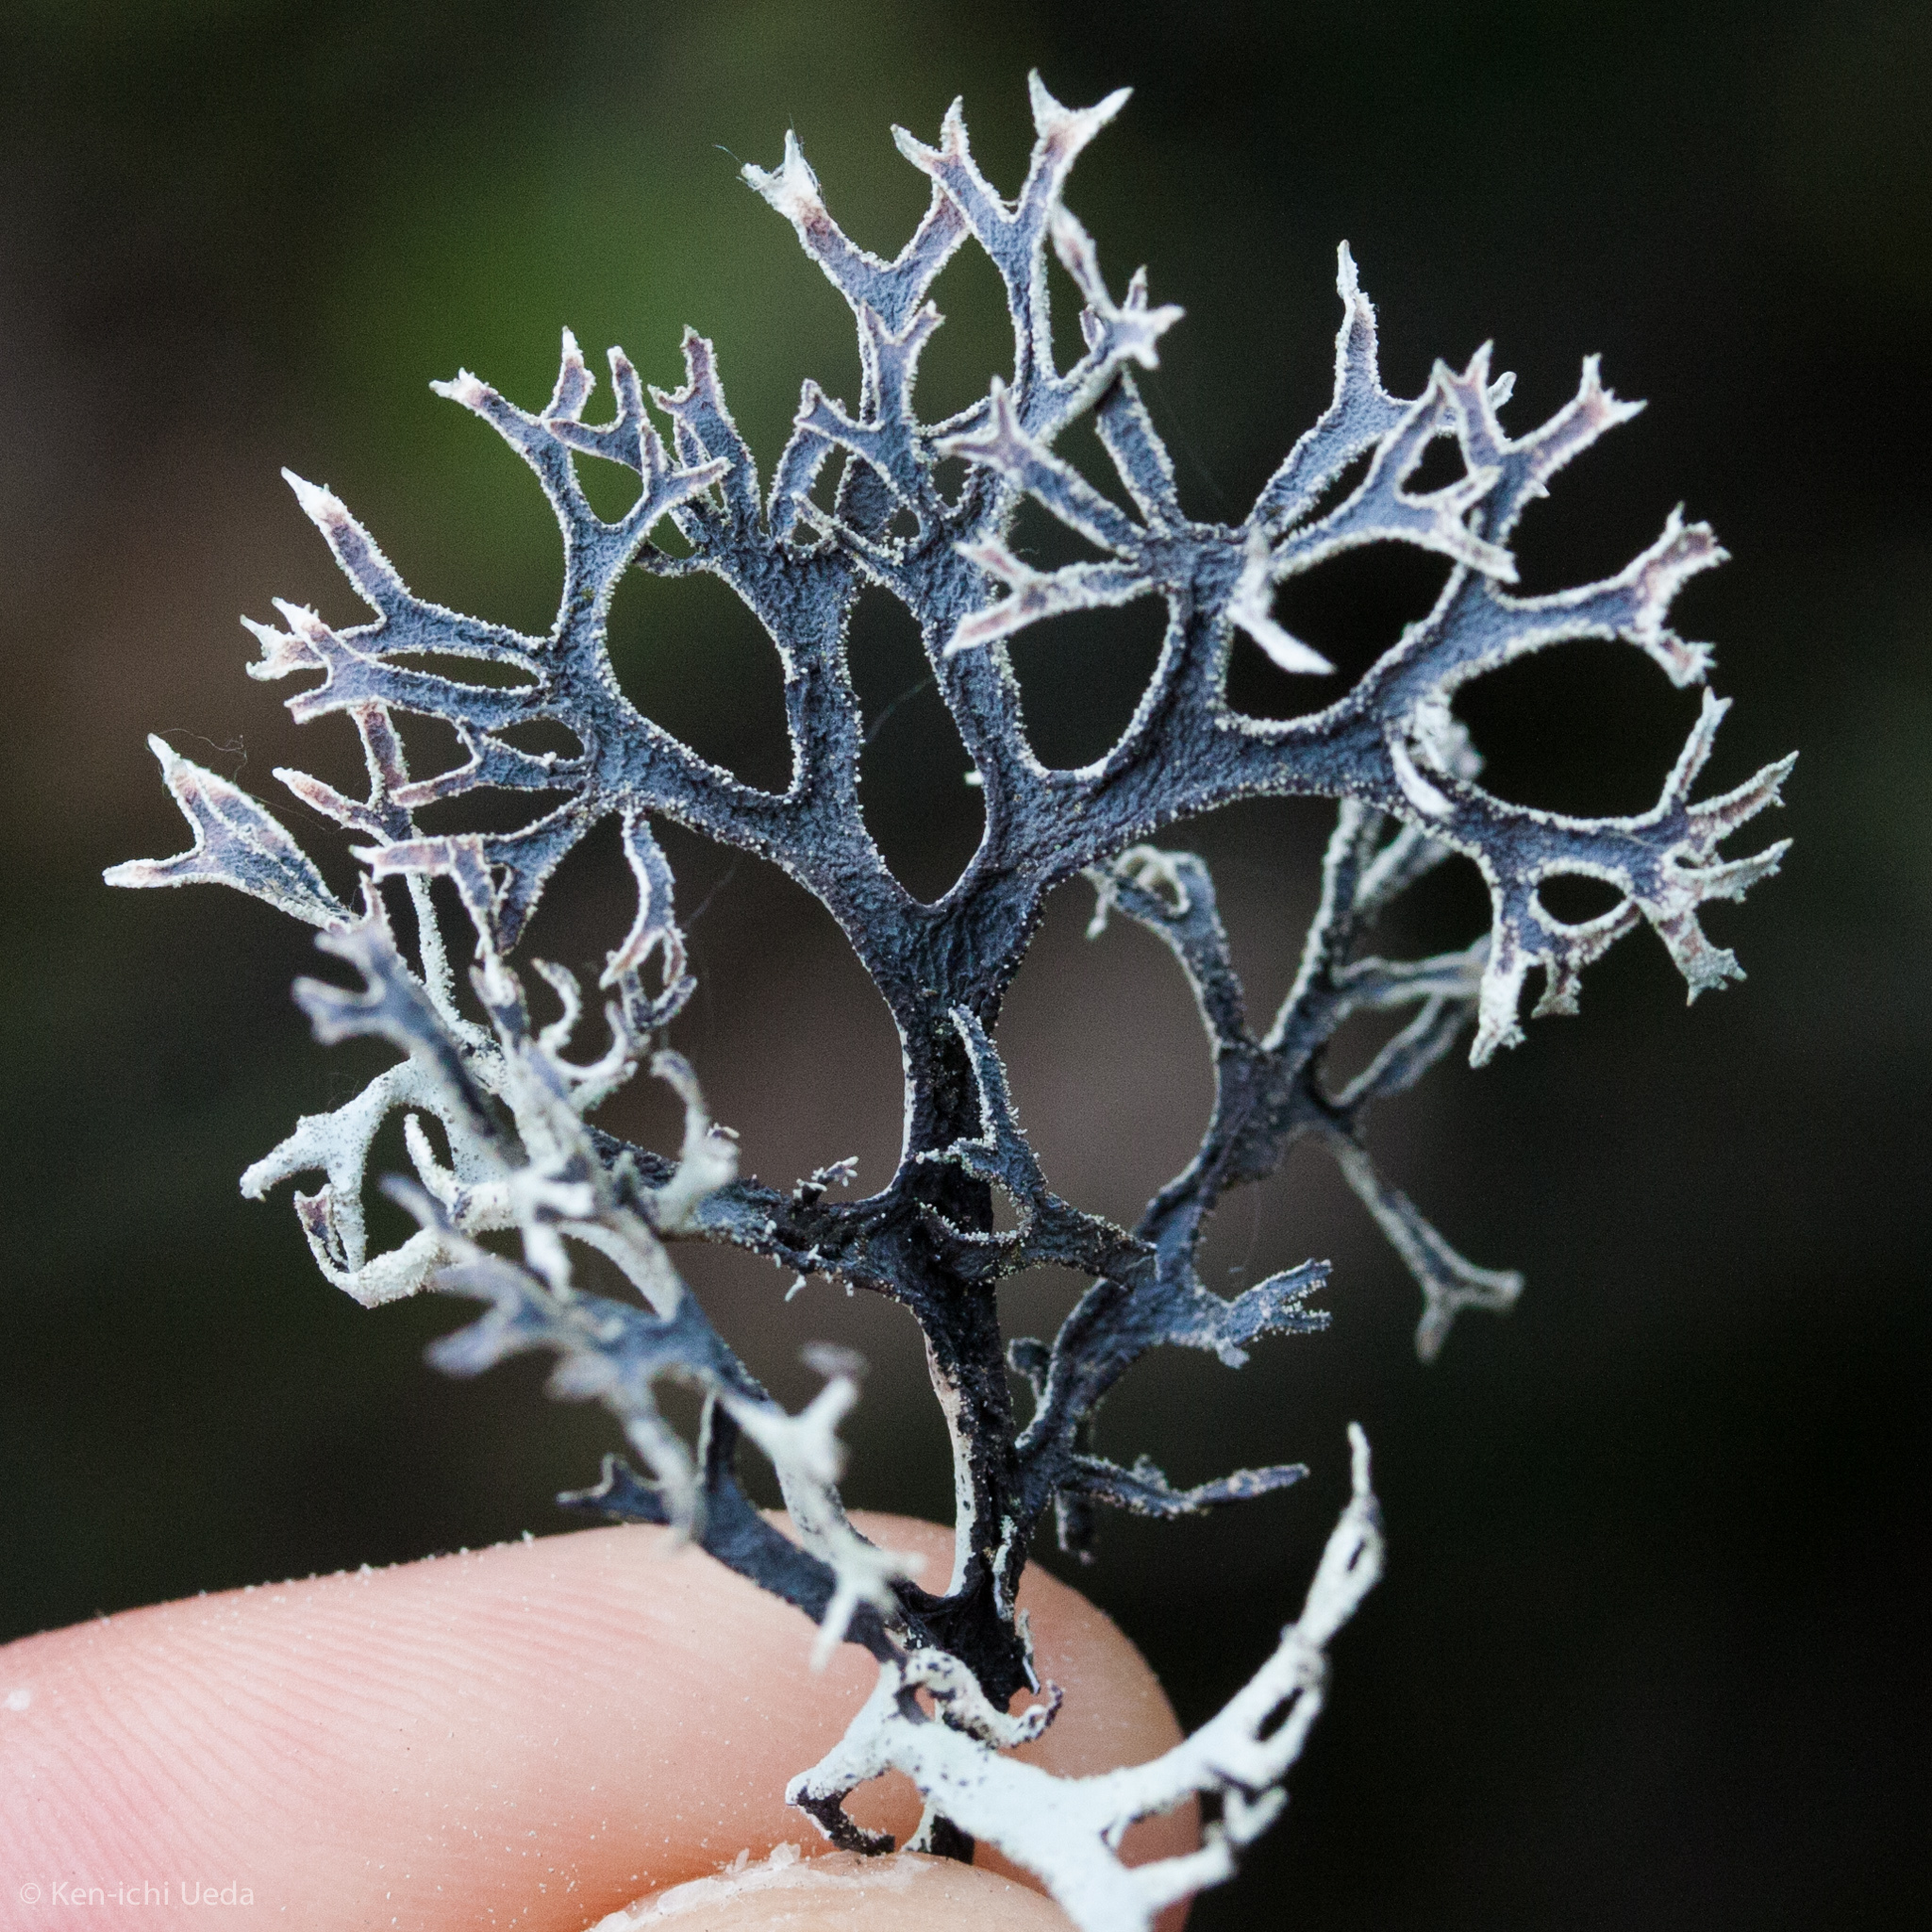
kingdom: Fungi
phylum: Ascomycota
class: Lecanoromycetes
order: Lecanorales
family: Parmeliaceae
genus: Pseudevernia
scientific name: Pseudevernia consocians
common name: Common antler lichen
